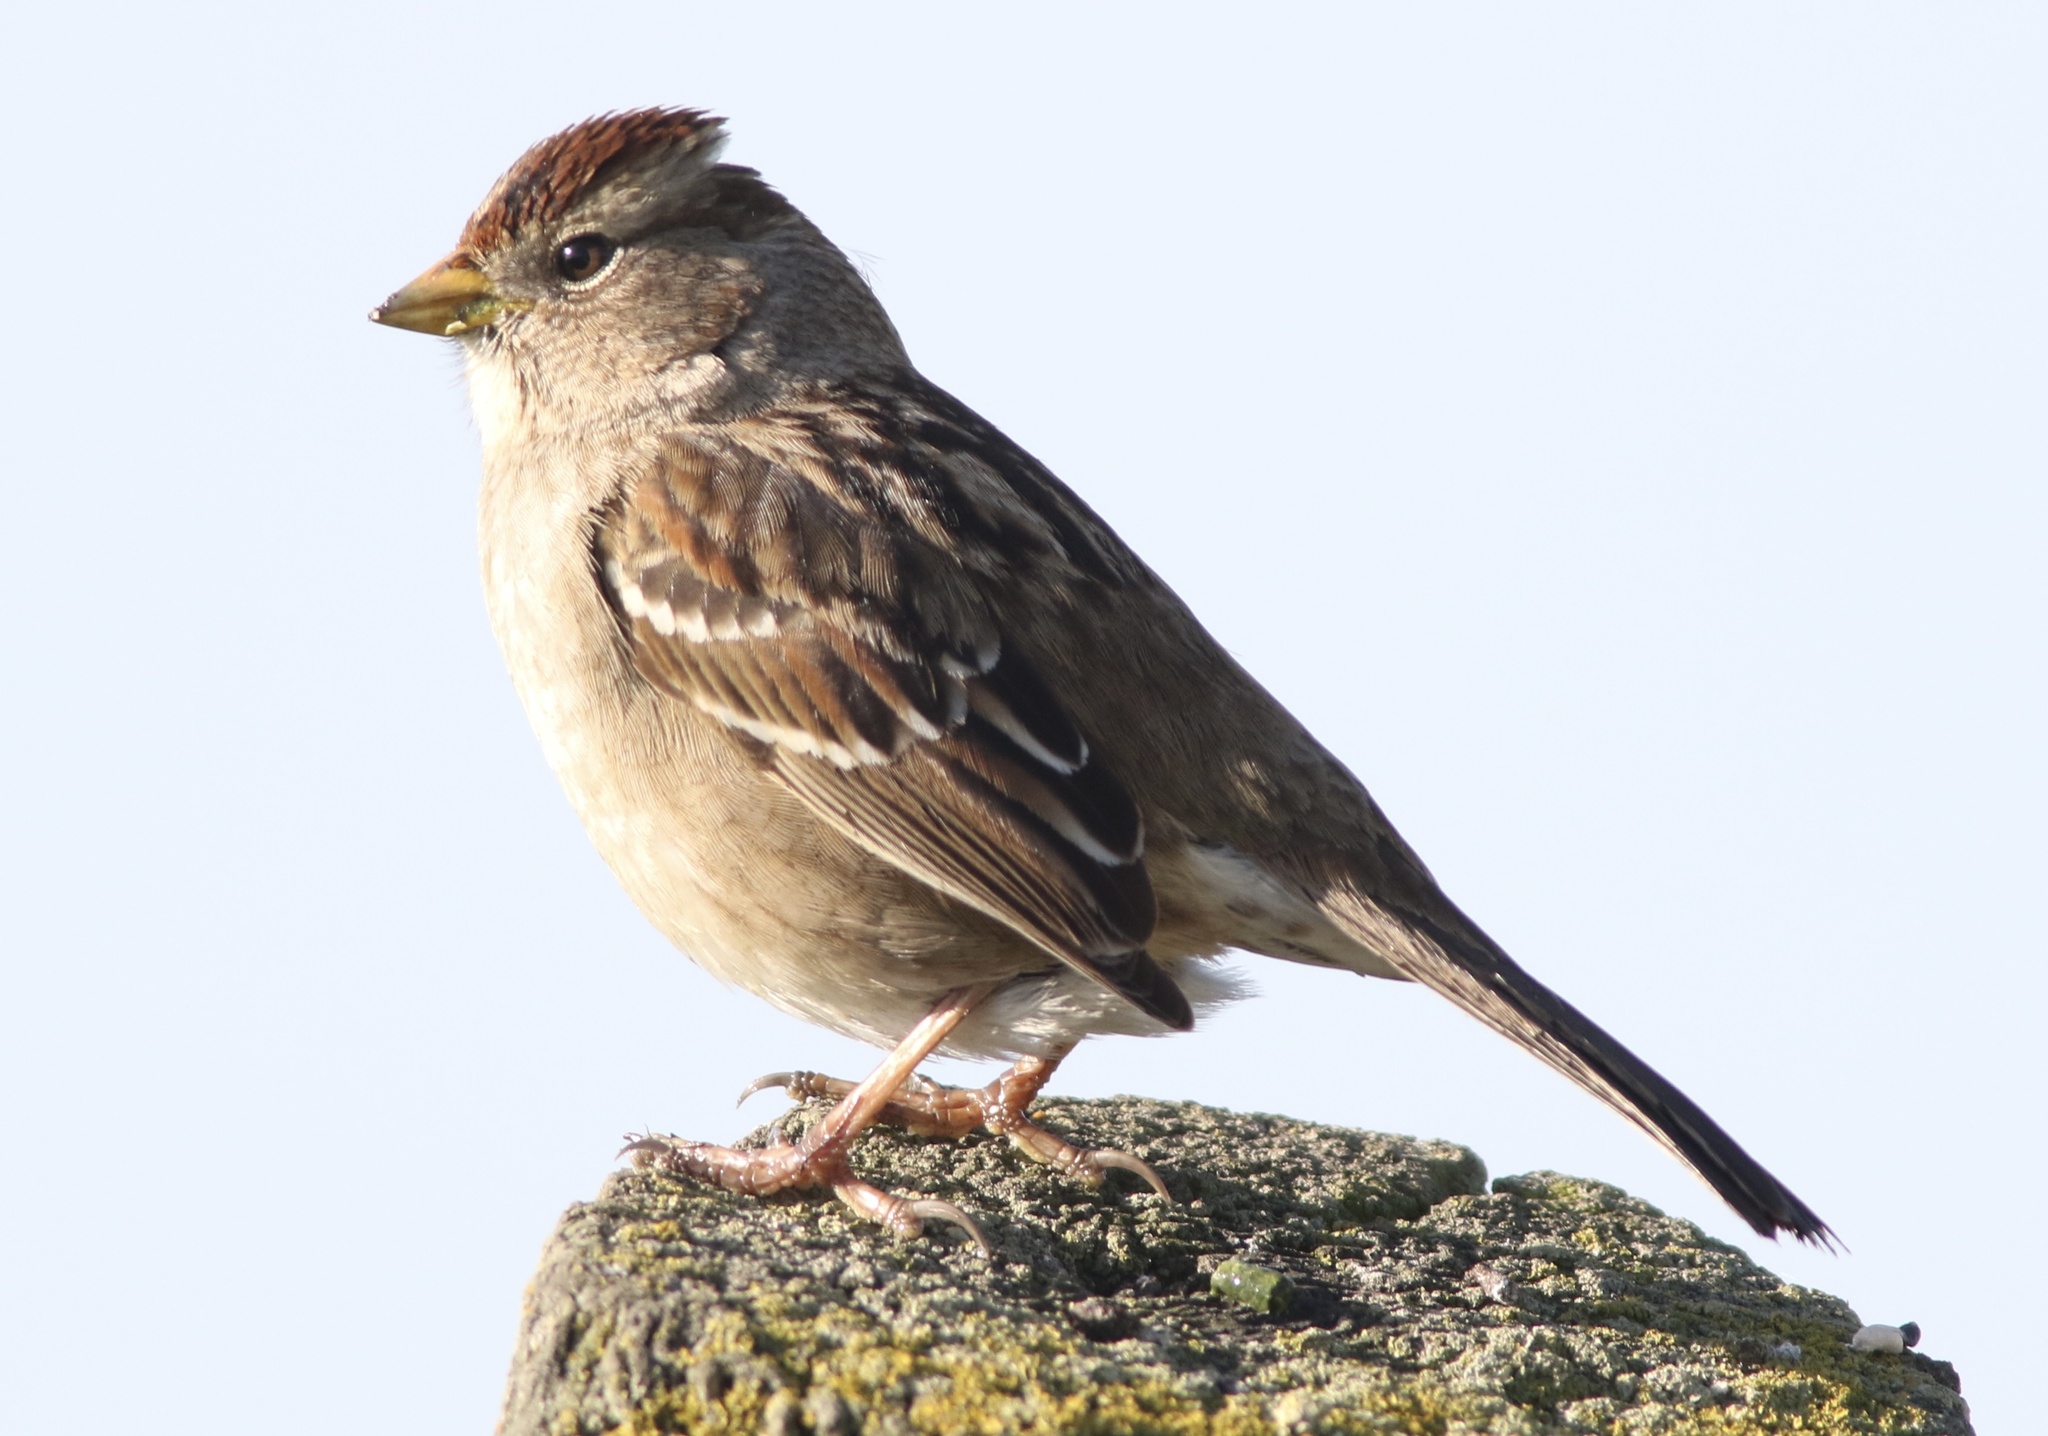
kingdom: Animalia
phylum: Chordata
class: Aves
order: Passeriformes
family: Passerellidae
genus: Zonotrichia
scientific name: Zonotrichia leucophrys
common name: White-crowned sparrow
